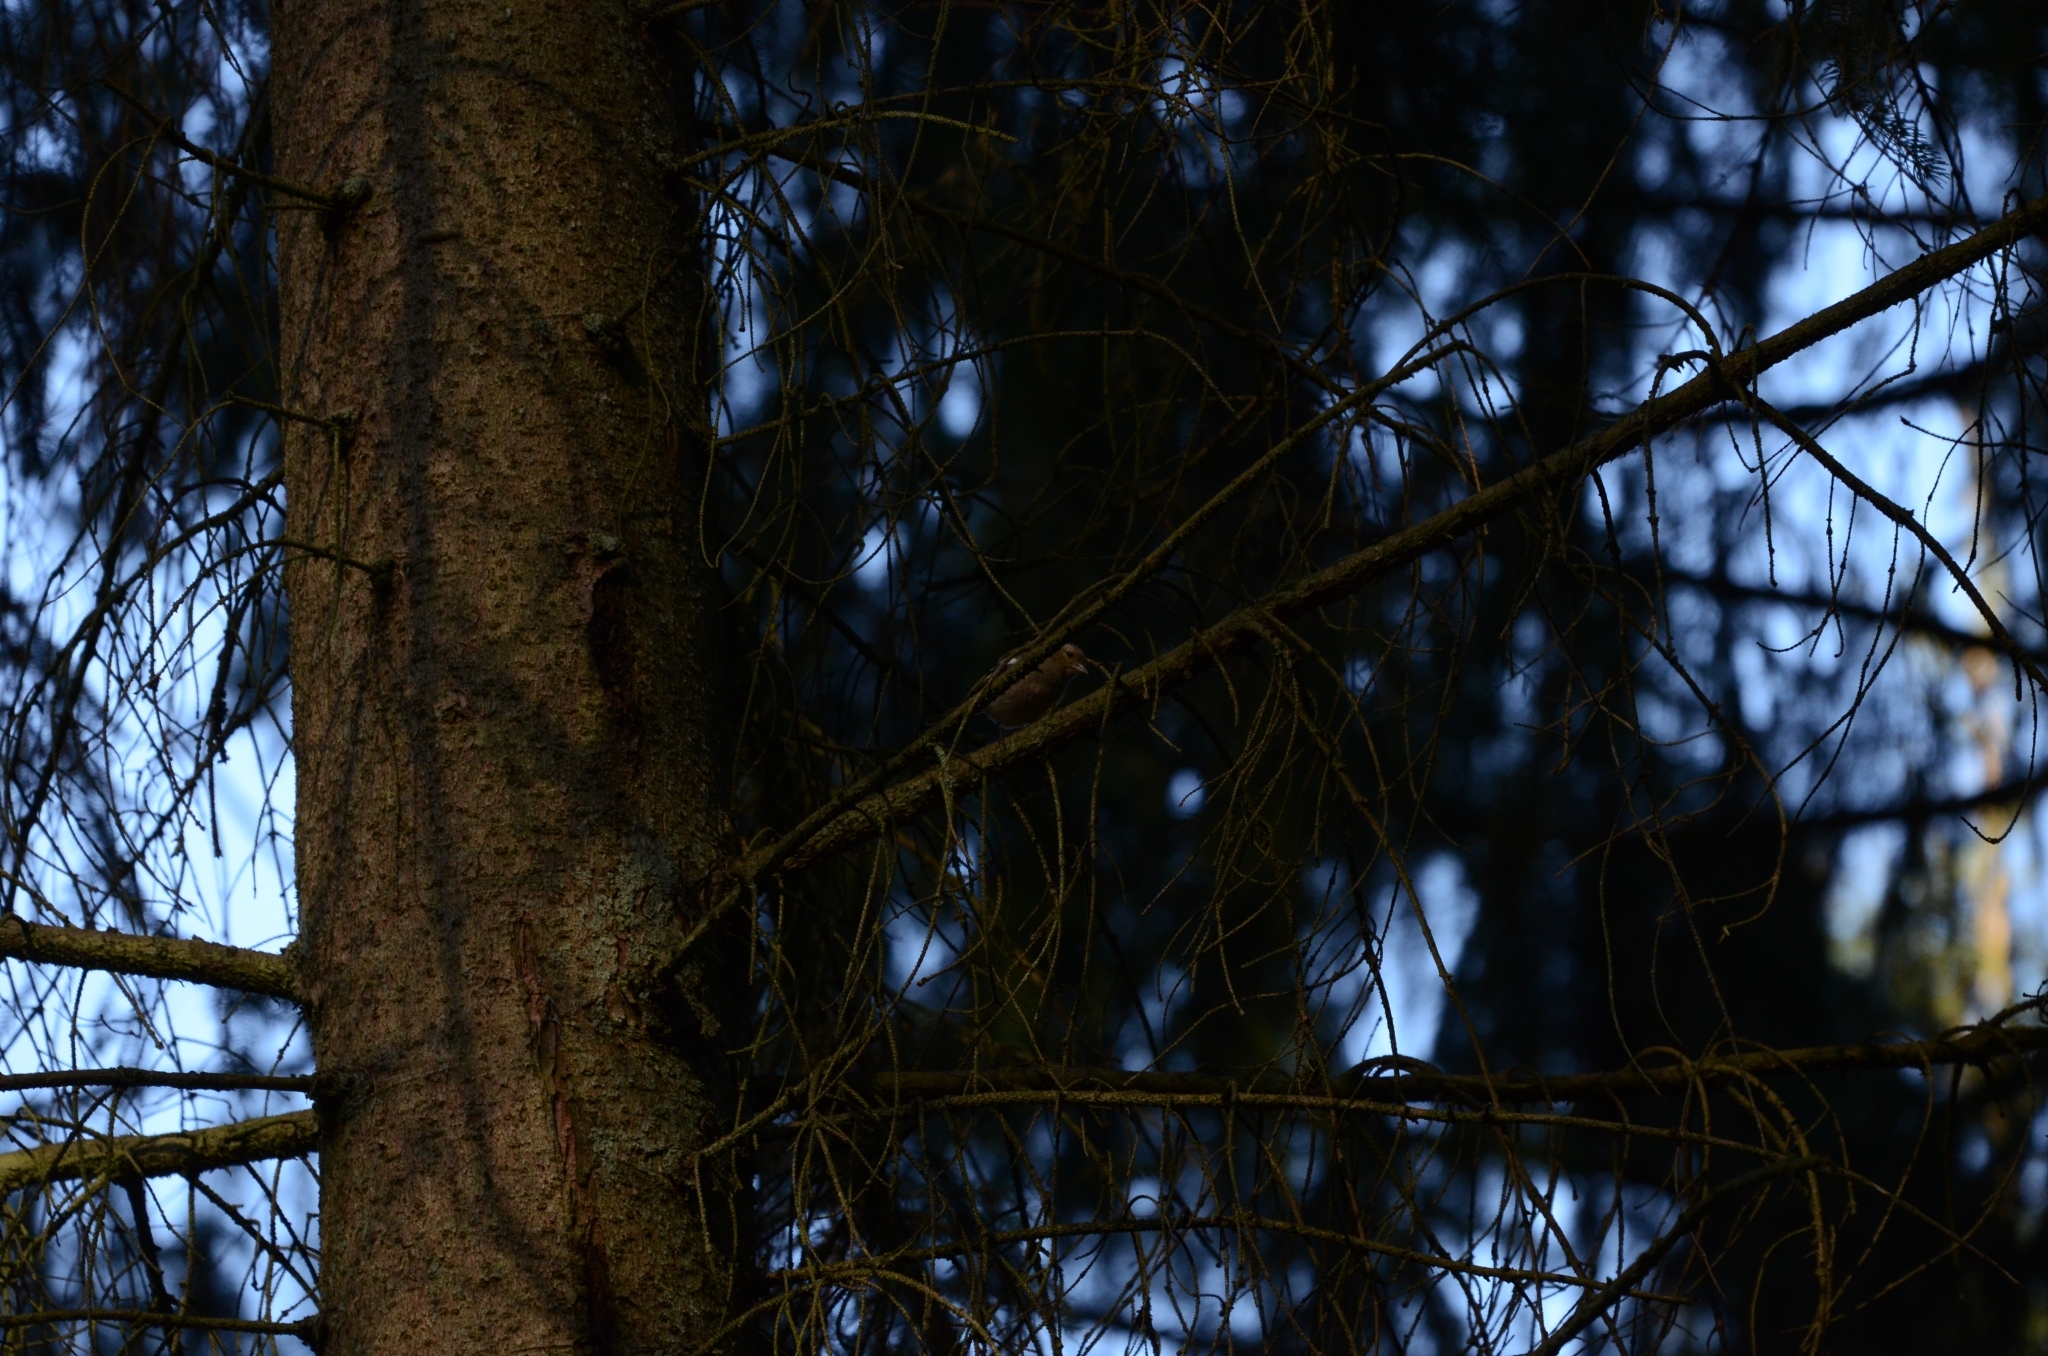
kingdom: Animalia
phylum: Chordata
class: Aves
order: Passeriformes
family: Fringillidae
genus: Fringilla
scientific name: Fringilla coelebs
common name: Common chaffinch
